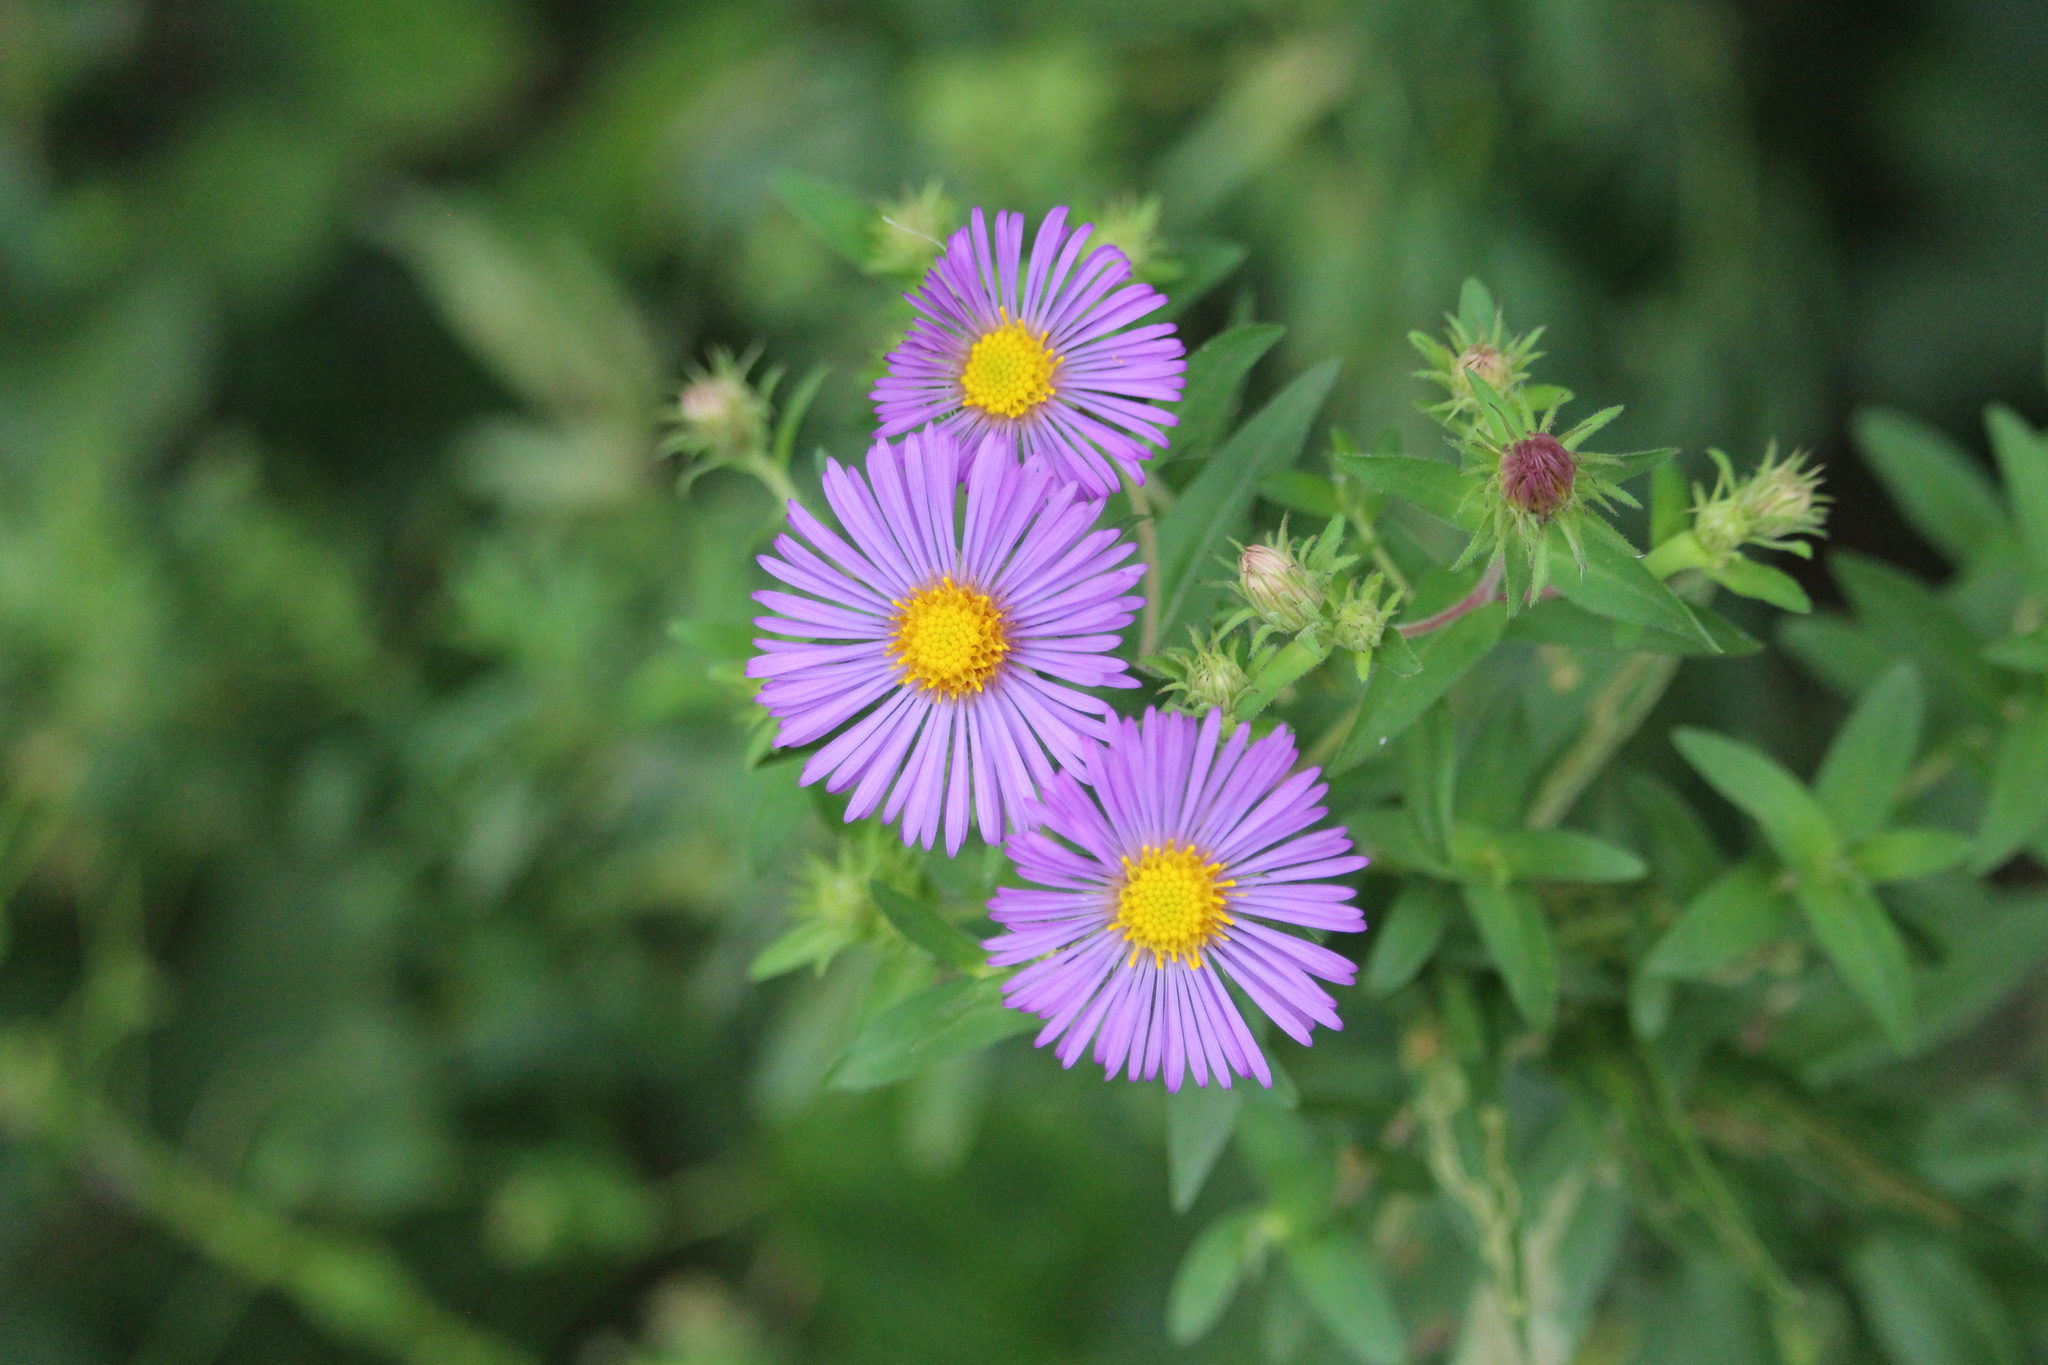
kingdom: Plantae
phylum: Tracheophyta
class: Magnoliopsida
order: Asterales
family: Asteraceae
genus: Symphyotrichum
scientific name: Symphyotrichum novae-angliae
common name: Michaelmas daisy
